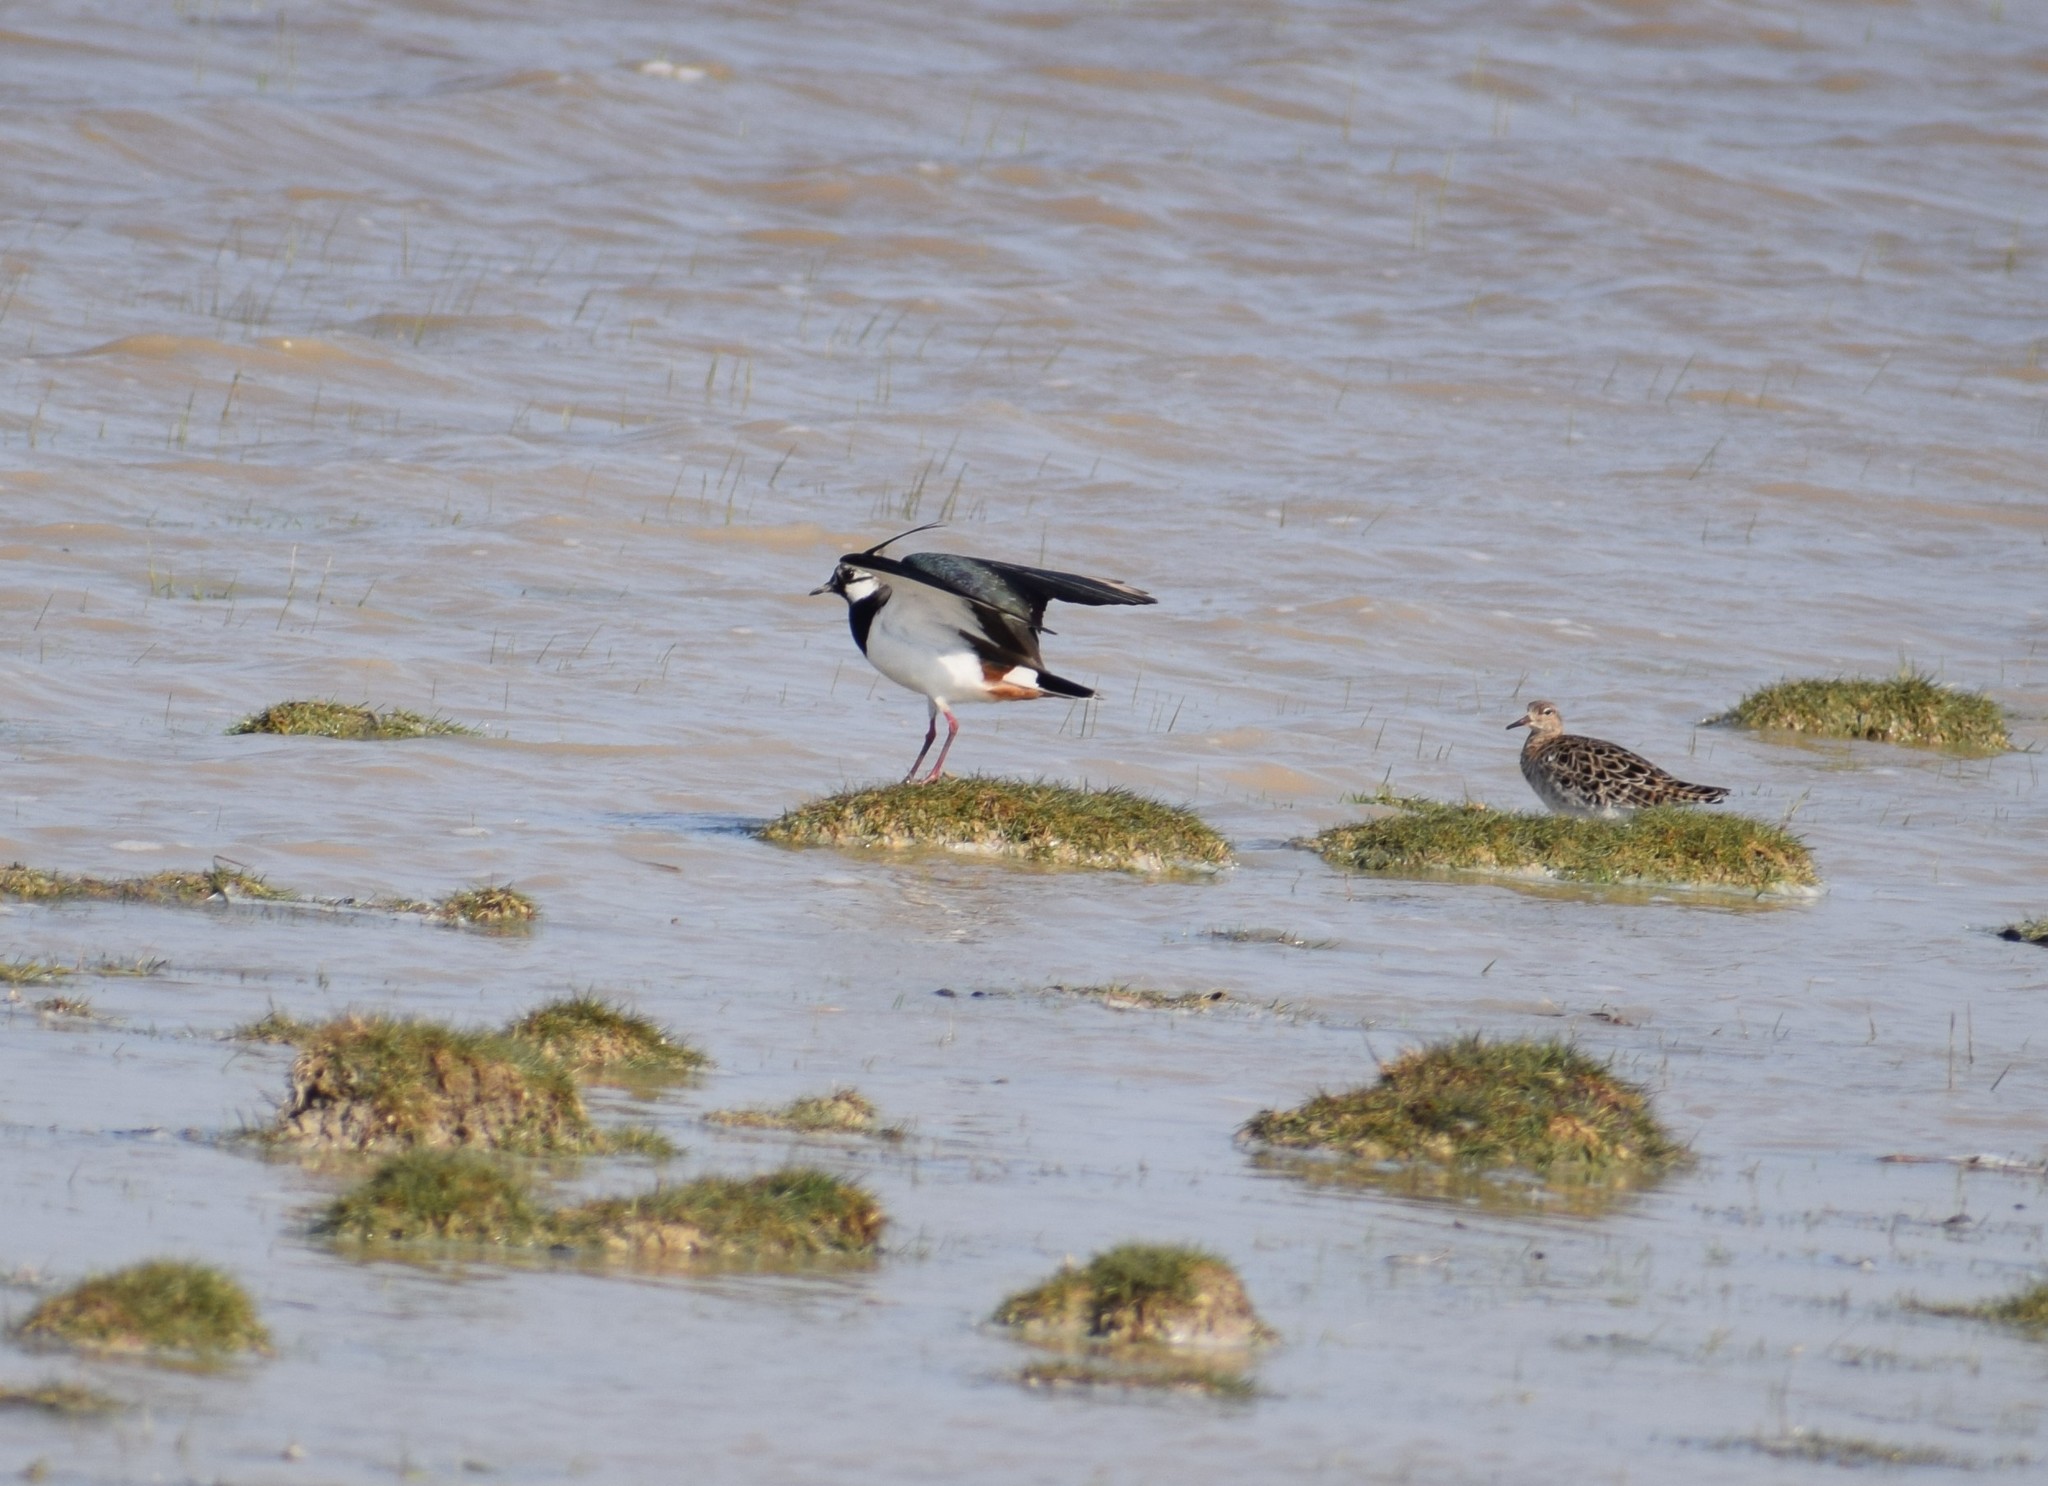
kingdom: Animalia
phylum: Chordata
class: Aves
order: Charadriiformes
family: Charadriidae
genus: Vanellus
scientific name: Vanellus vanellus
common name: Northern lapwing
